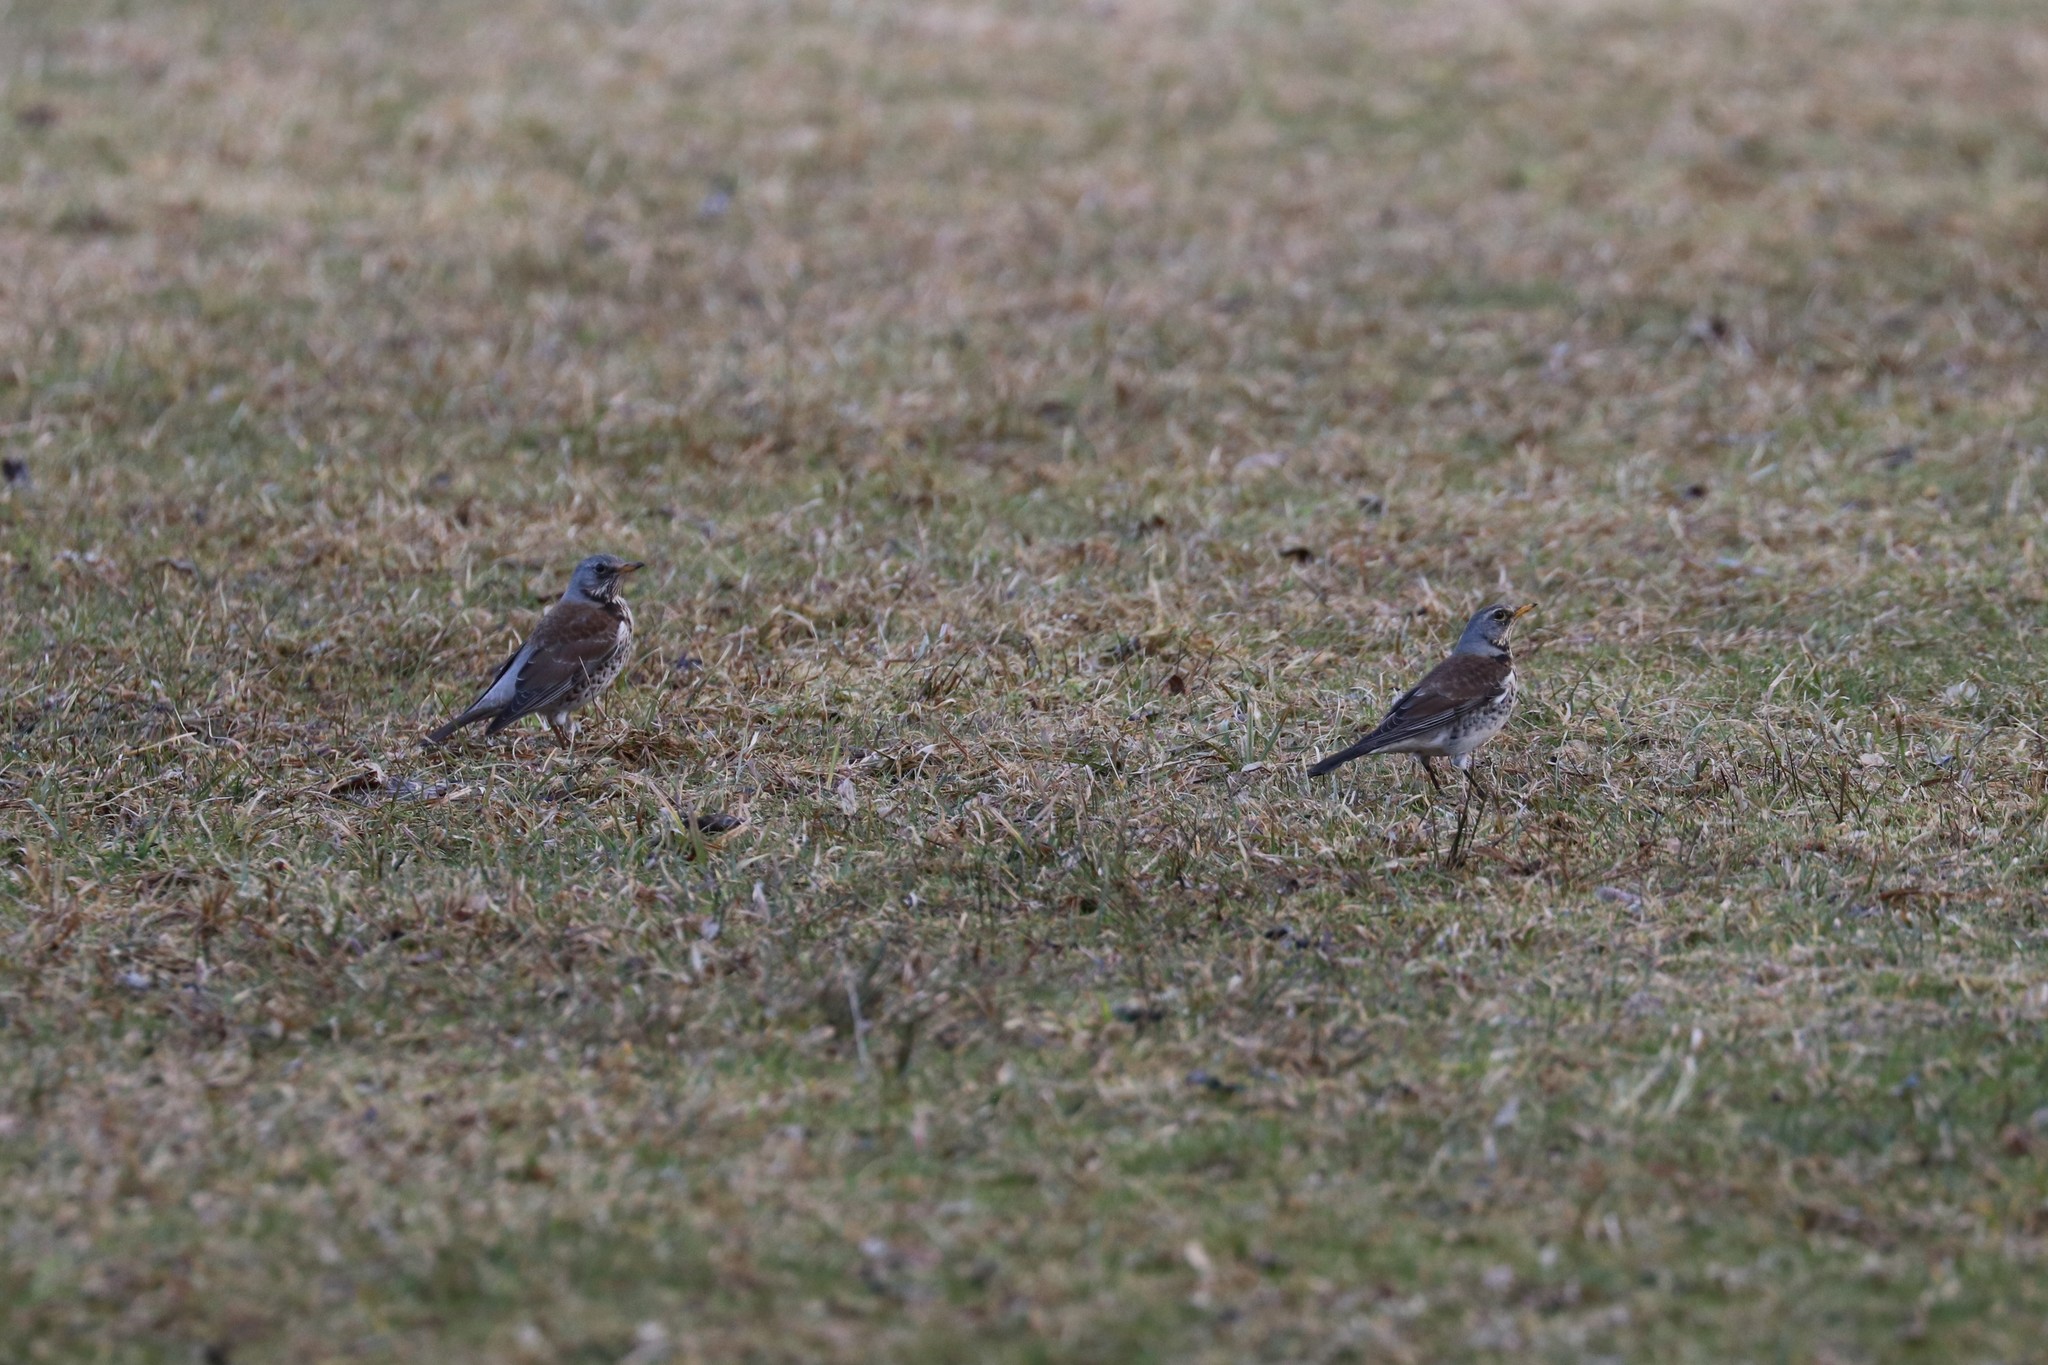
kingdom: Animalia
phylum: Chordata
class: Aves
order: Passeriformes
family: Turdidae
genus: Turdus
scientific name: Turdus pilaris
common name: Fieldfare
